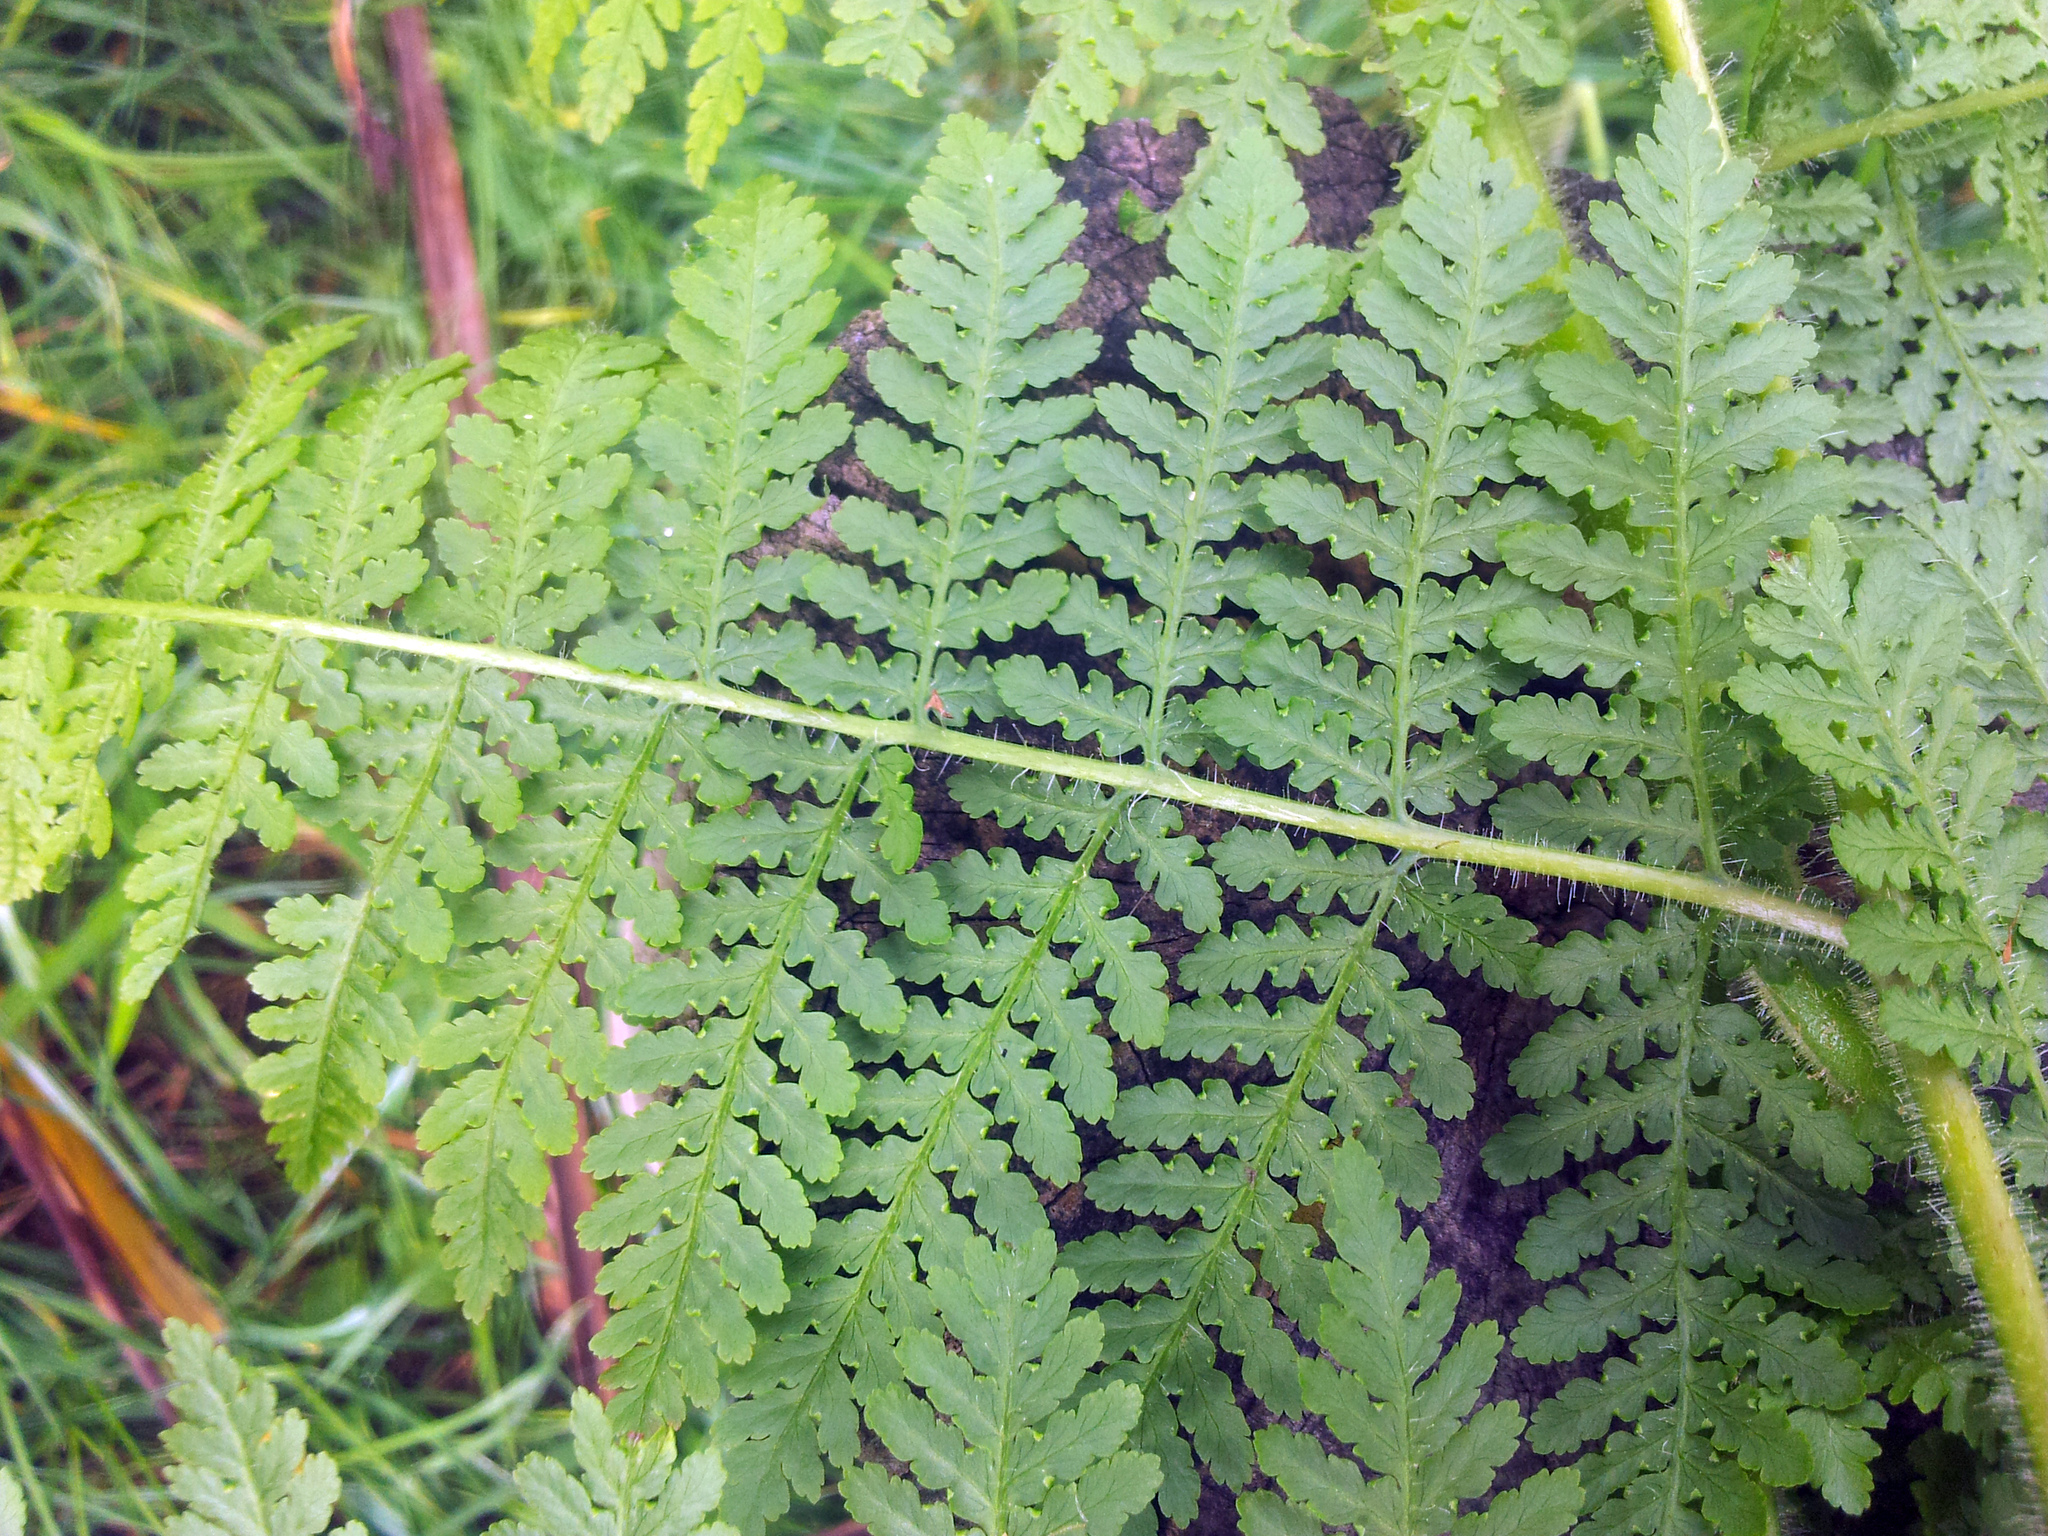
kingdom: Plantae
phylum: Tracheophyta
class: Polypodiopsida
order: Polypodiales
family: Dennstaedtiaceae
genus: Hypolepis
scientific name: Hypolepis dicksonioides
